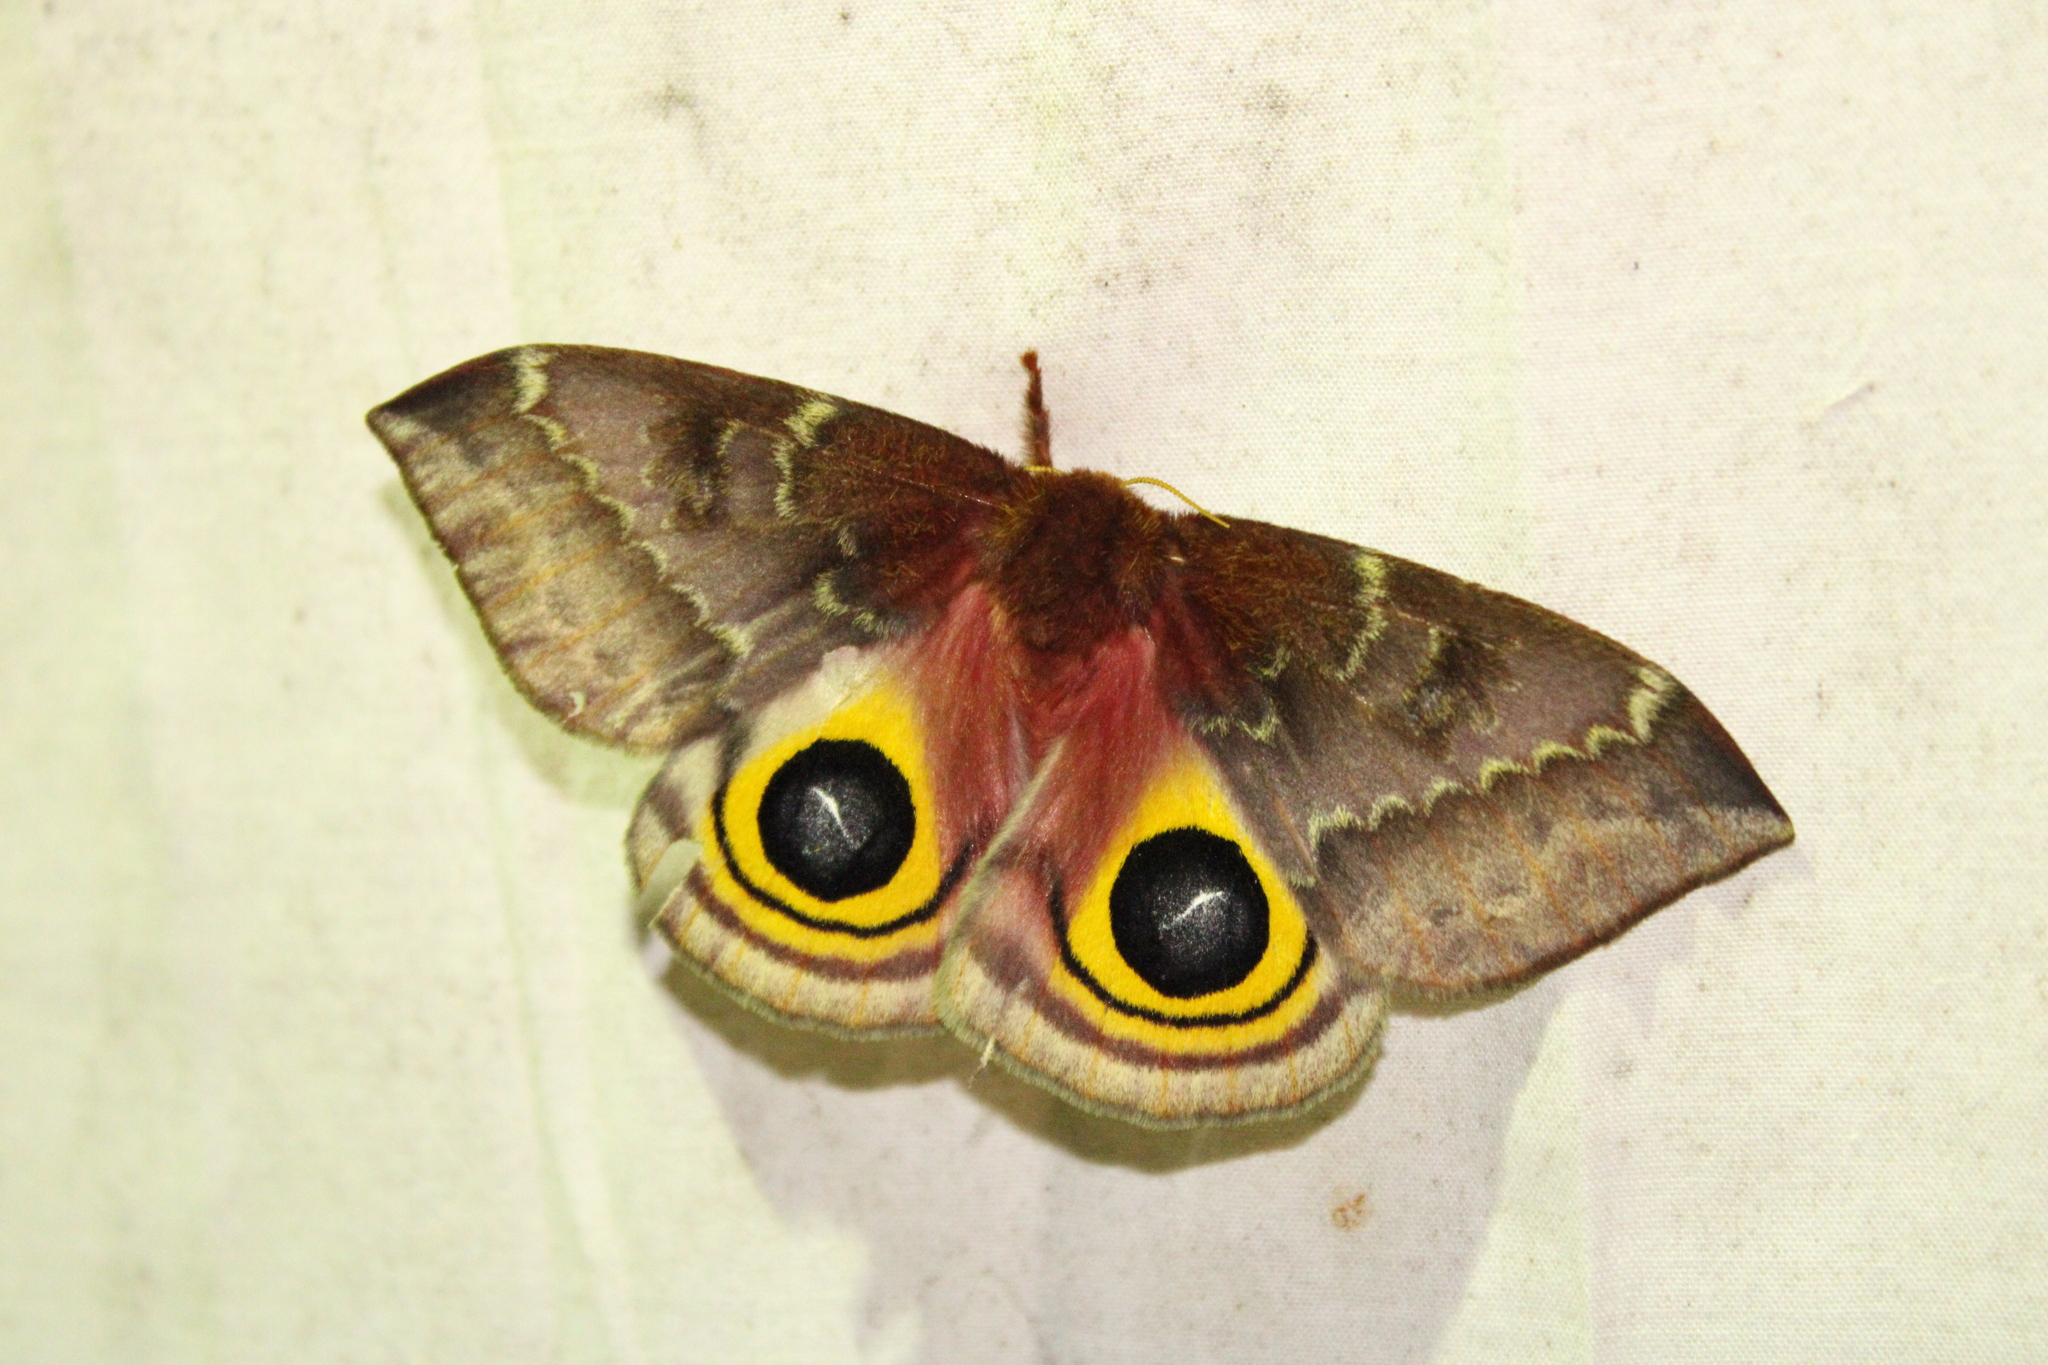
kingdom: Animalia
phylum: Arthropoda
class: Insecta
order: Lepidoptera
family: Saturniidae
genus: Automeris
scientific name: Automeris io
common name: Io moth
